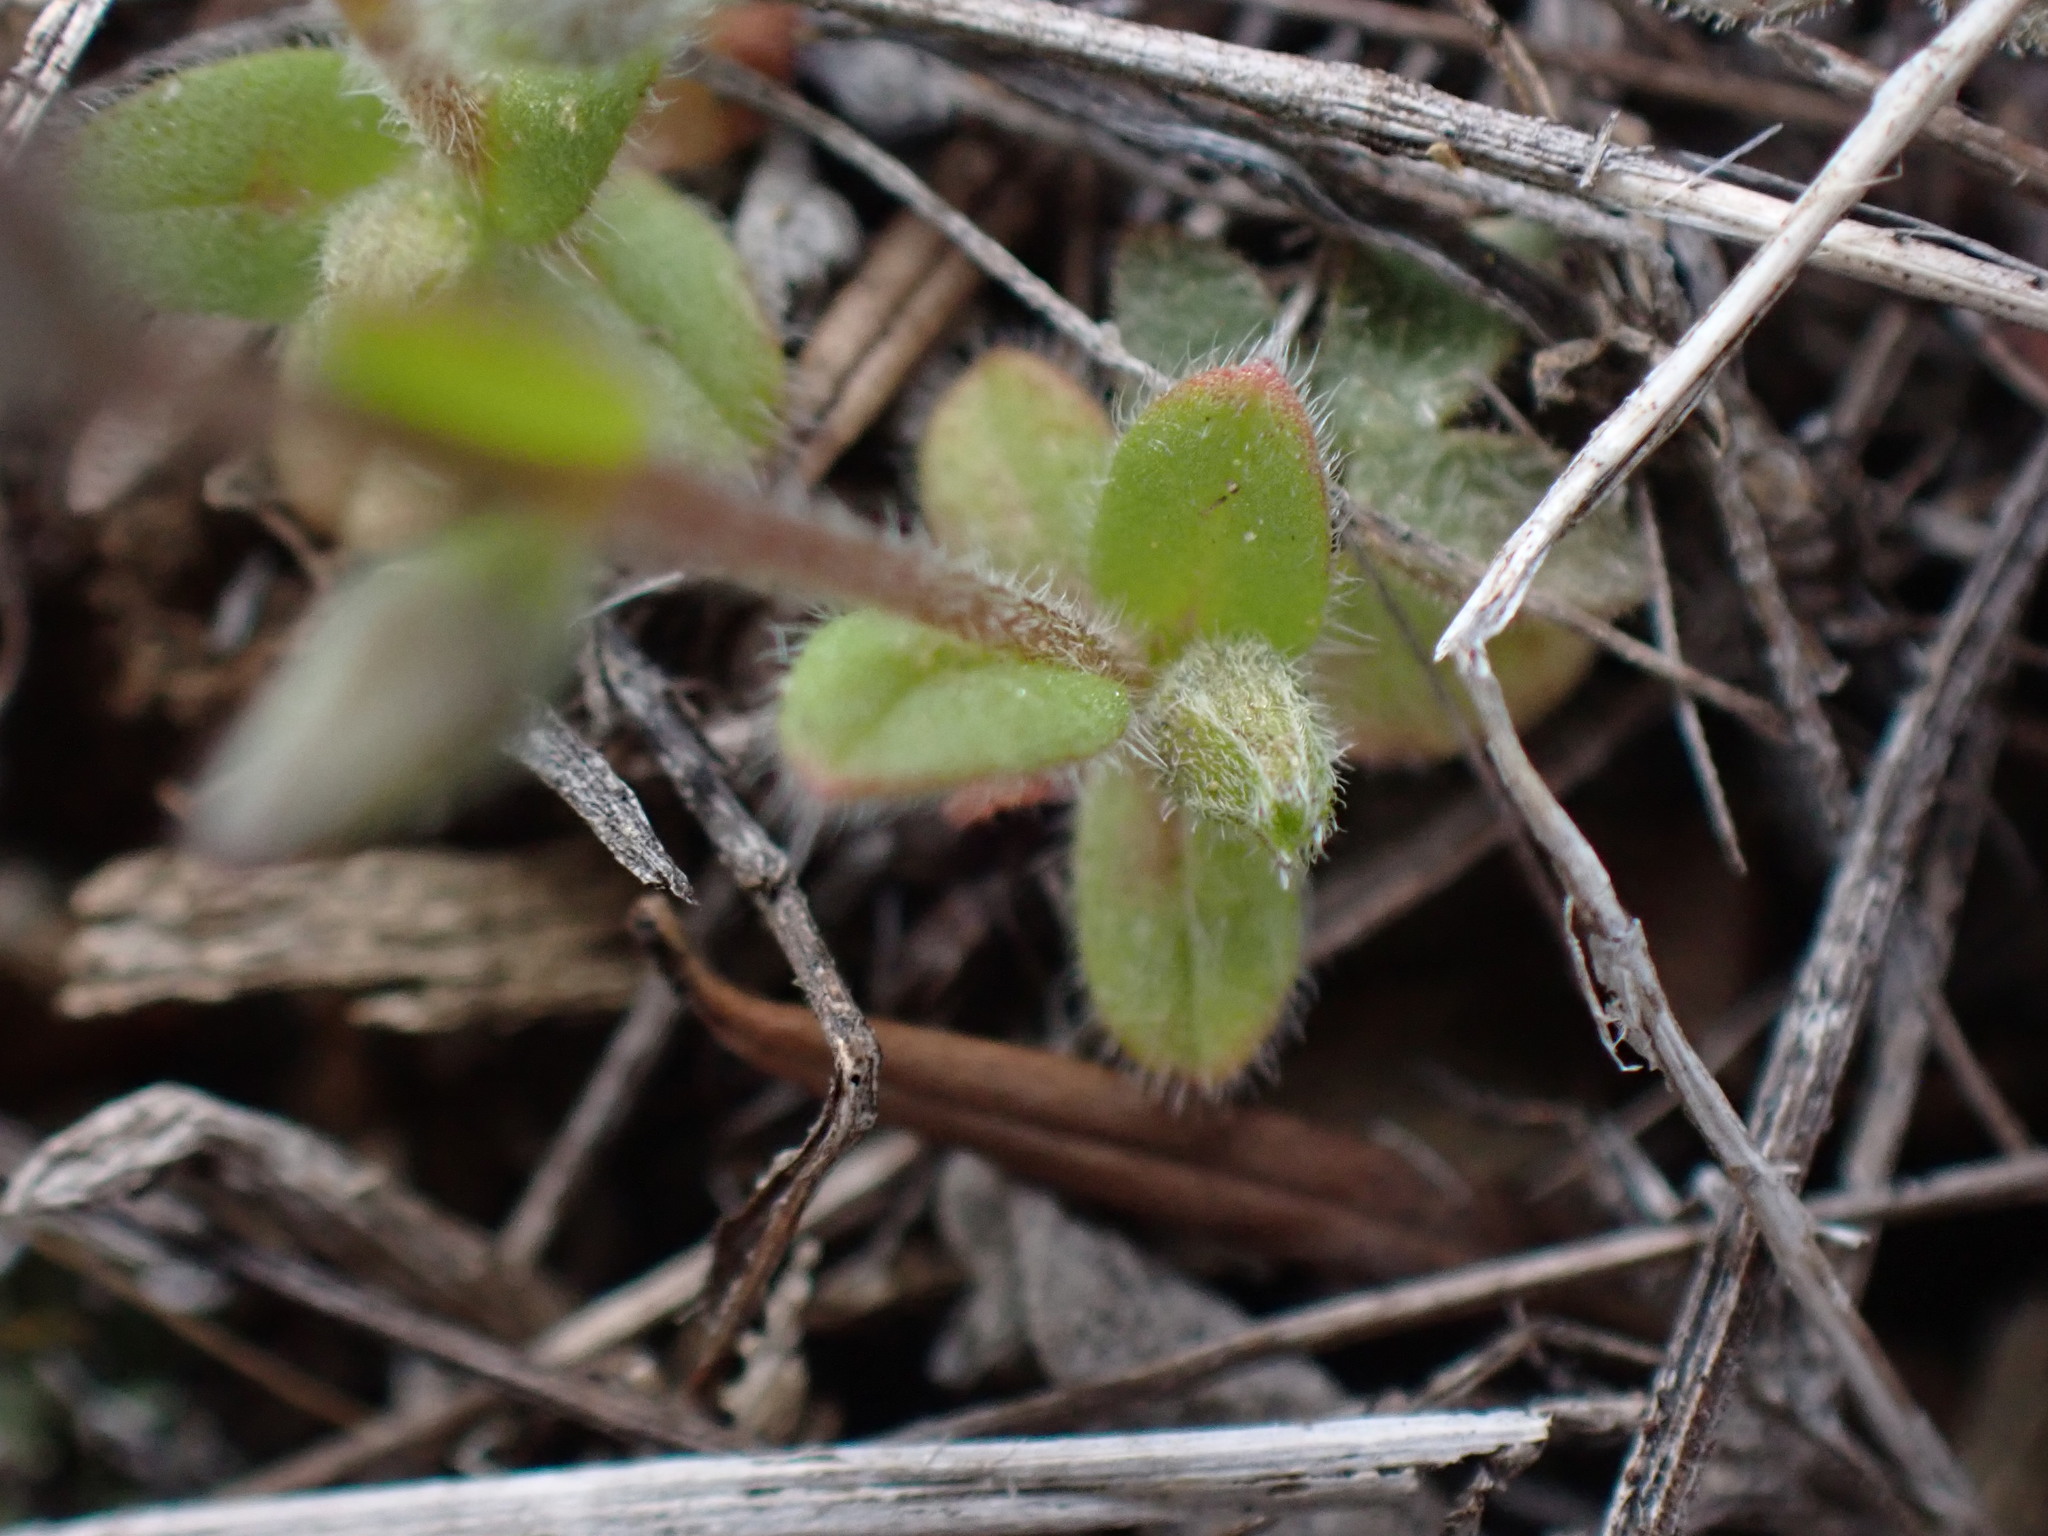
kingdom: Plantae
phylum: Tracheophyta
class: Magnoliopsida
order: Boraginales
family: Boraginaceae
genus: Myosotis
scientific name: Myosotis stricta
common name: Strict forget-me-not
